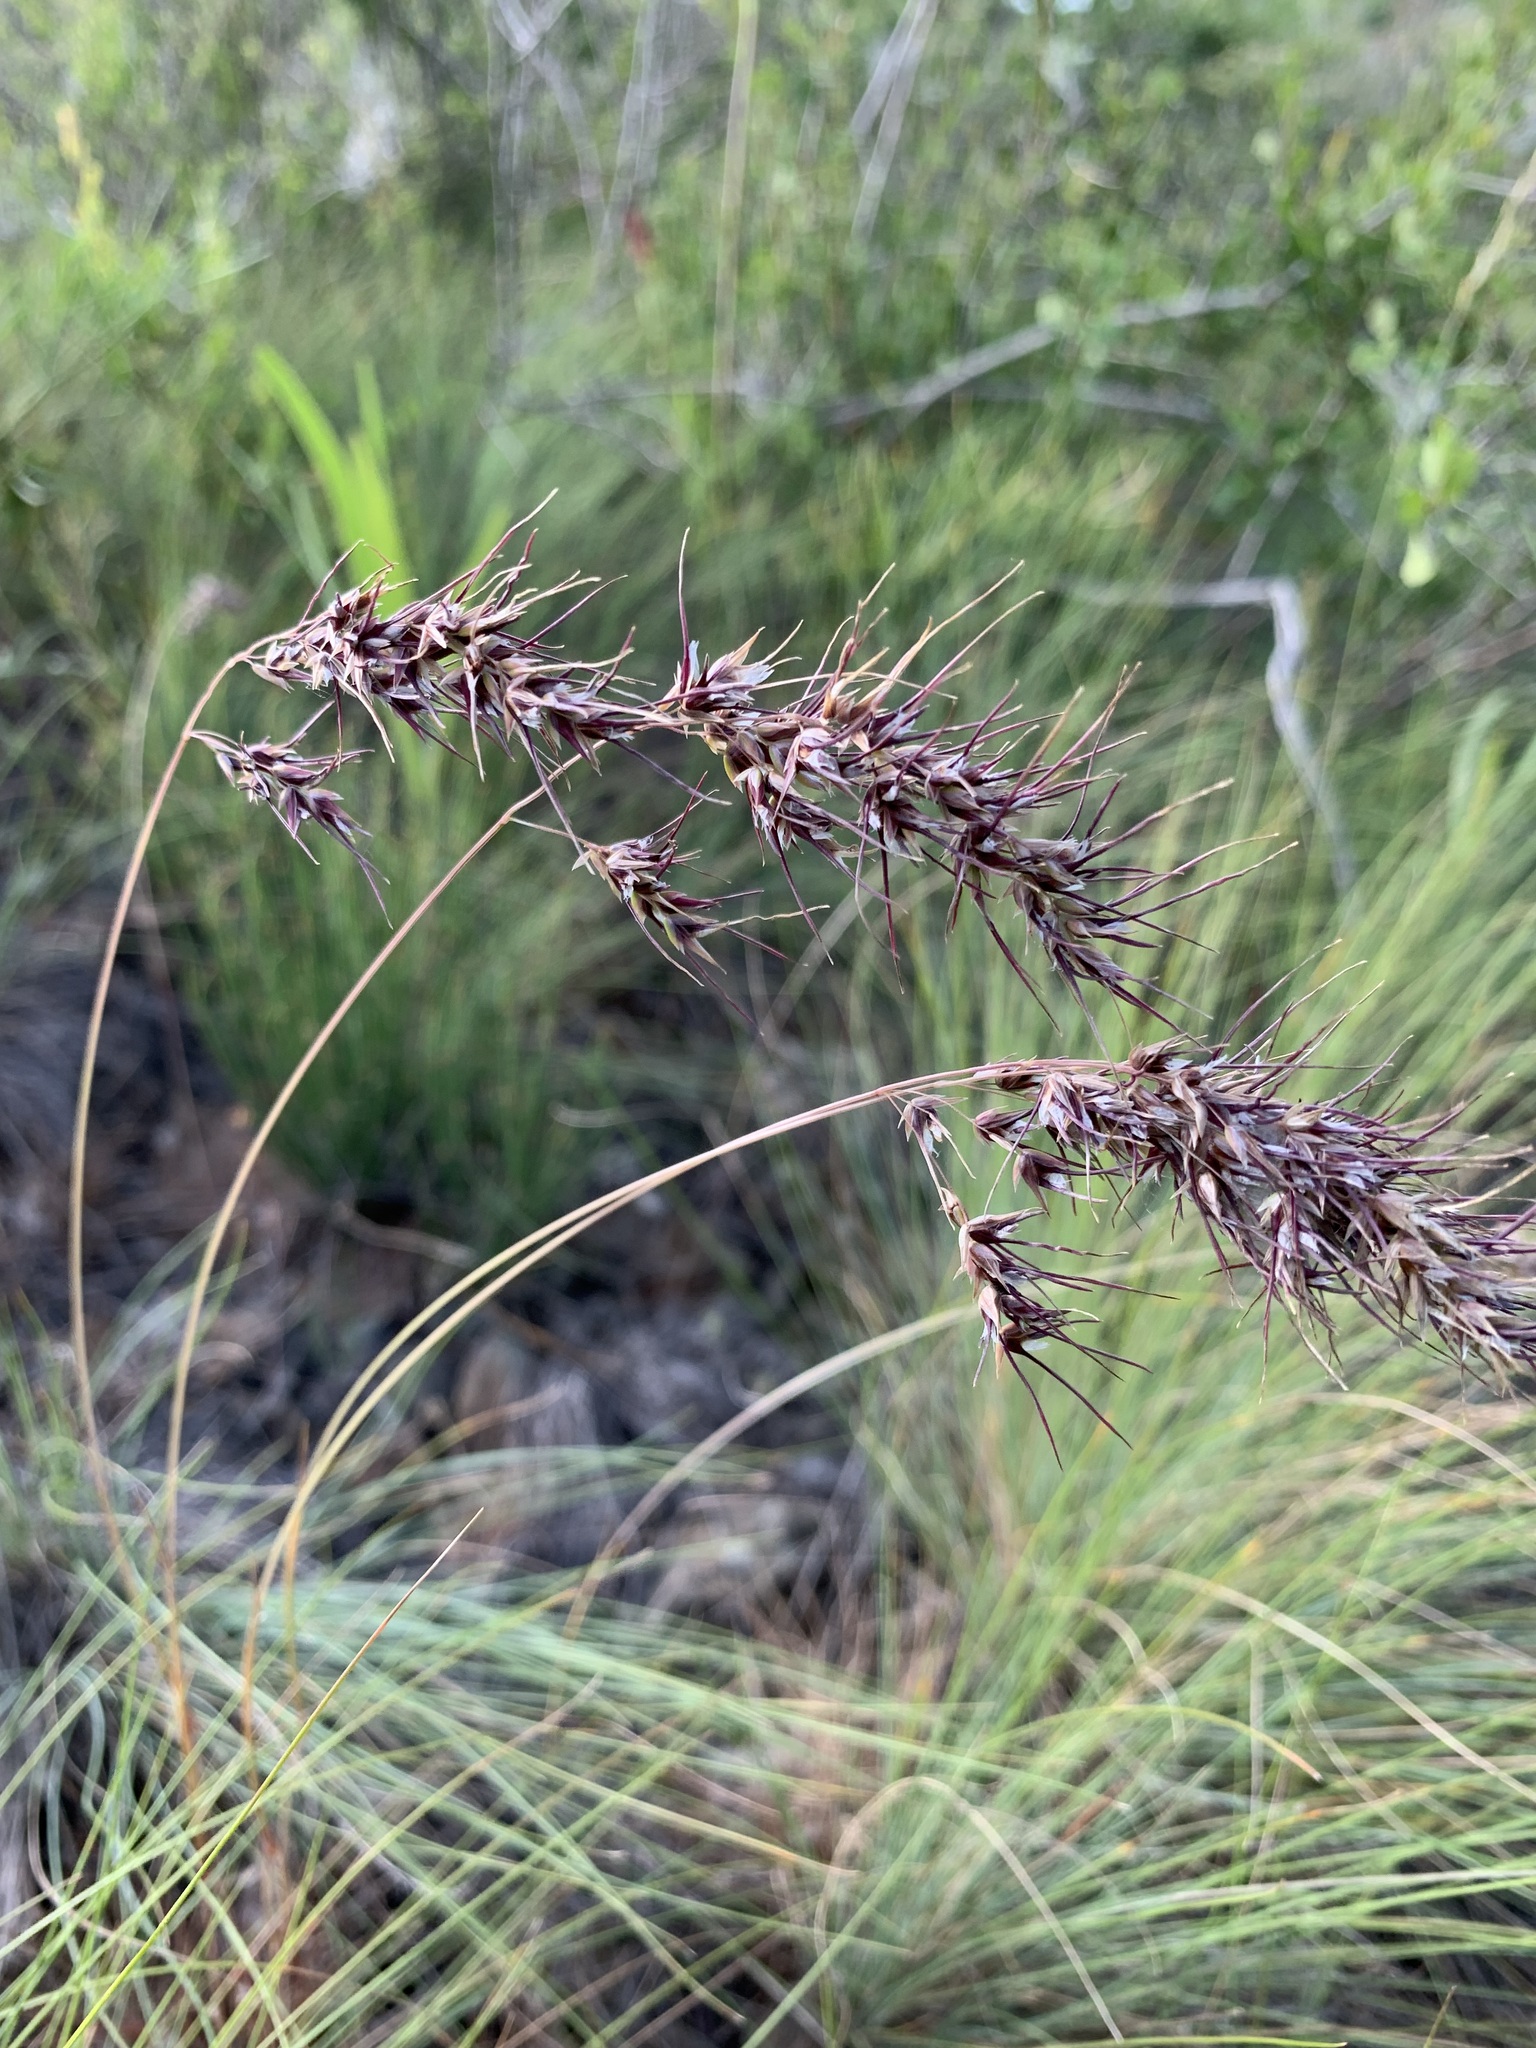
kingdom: Plantae
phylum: Tracheophyta
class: Liliopsida
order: Poales
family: Poaceae
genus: Poa
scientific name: Poa bulbosa
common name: Bulbous bluegrass
